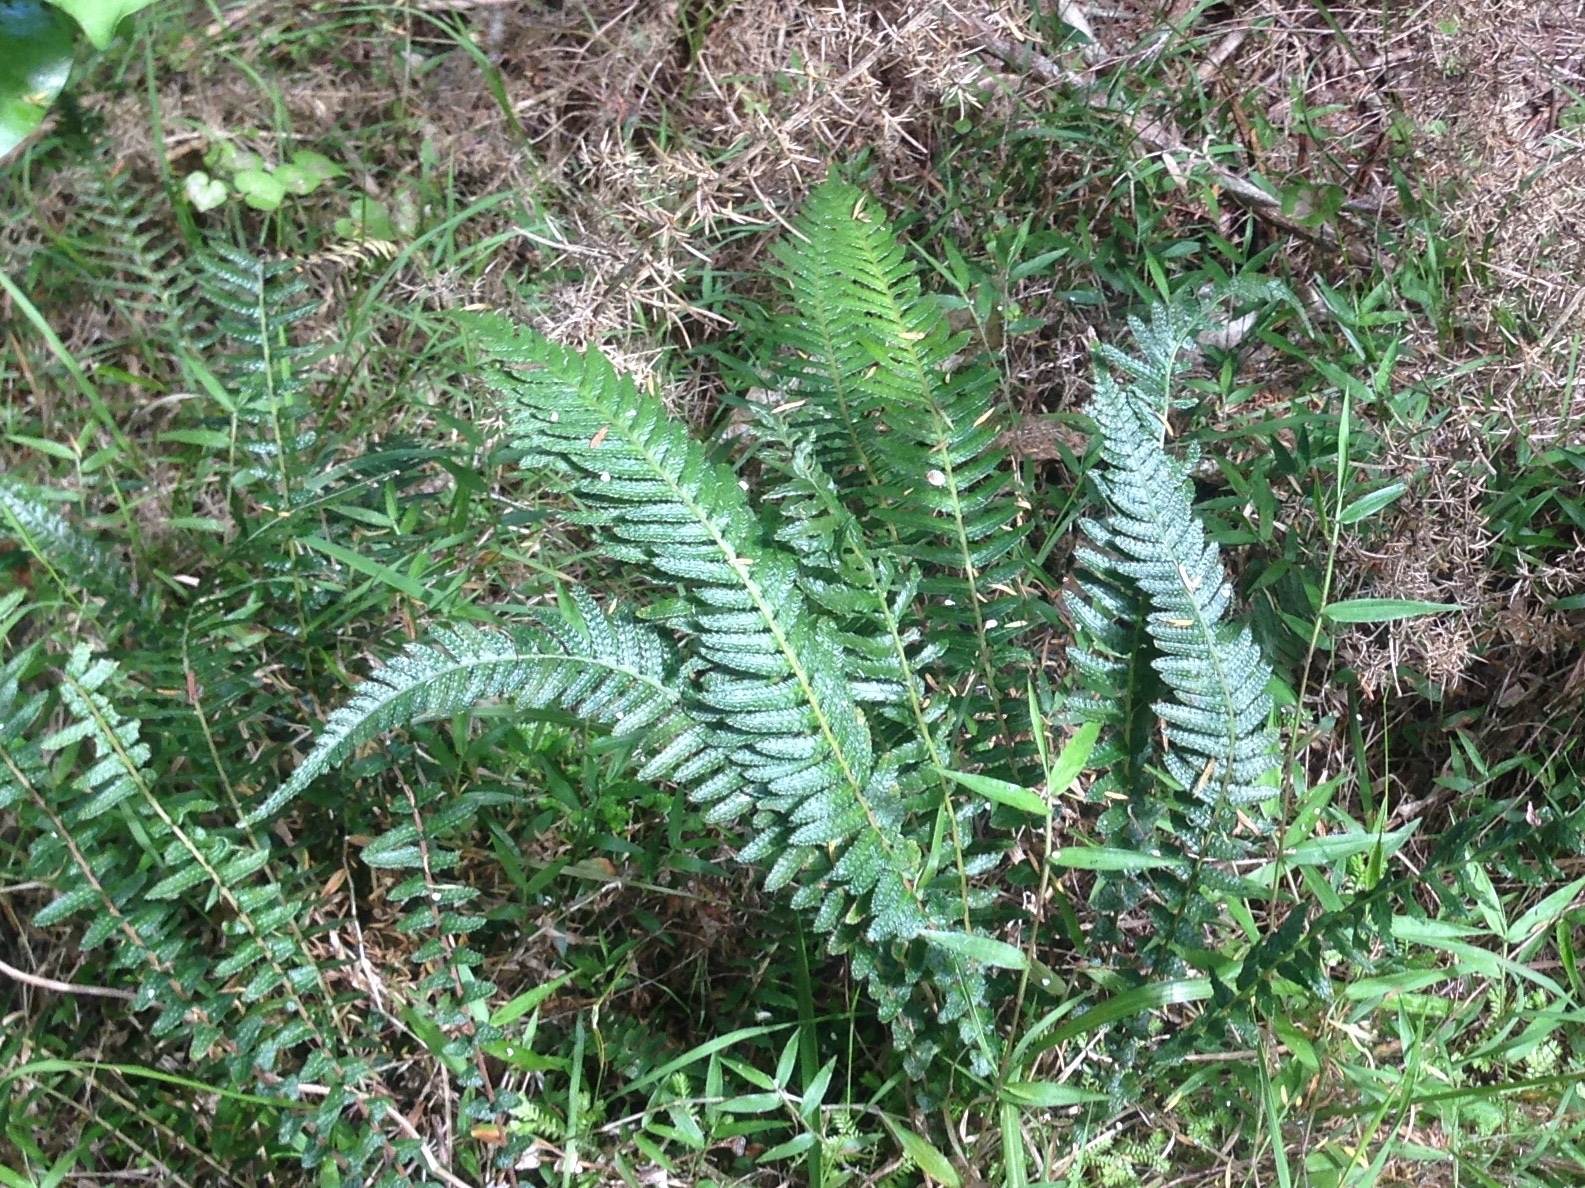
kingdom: Plantae
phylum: Tracheophyta
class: Polypodiopsida
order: Polypodiales
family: Blechnaceae
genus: Doodia
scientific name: Doodia australis
